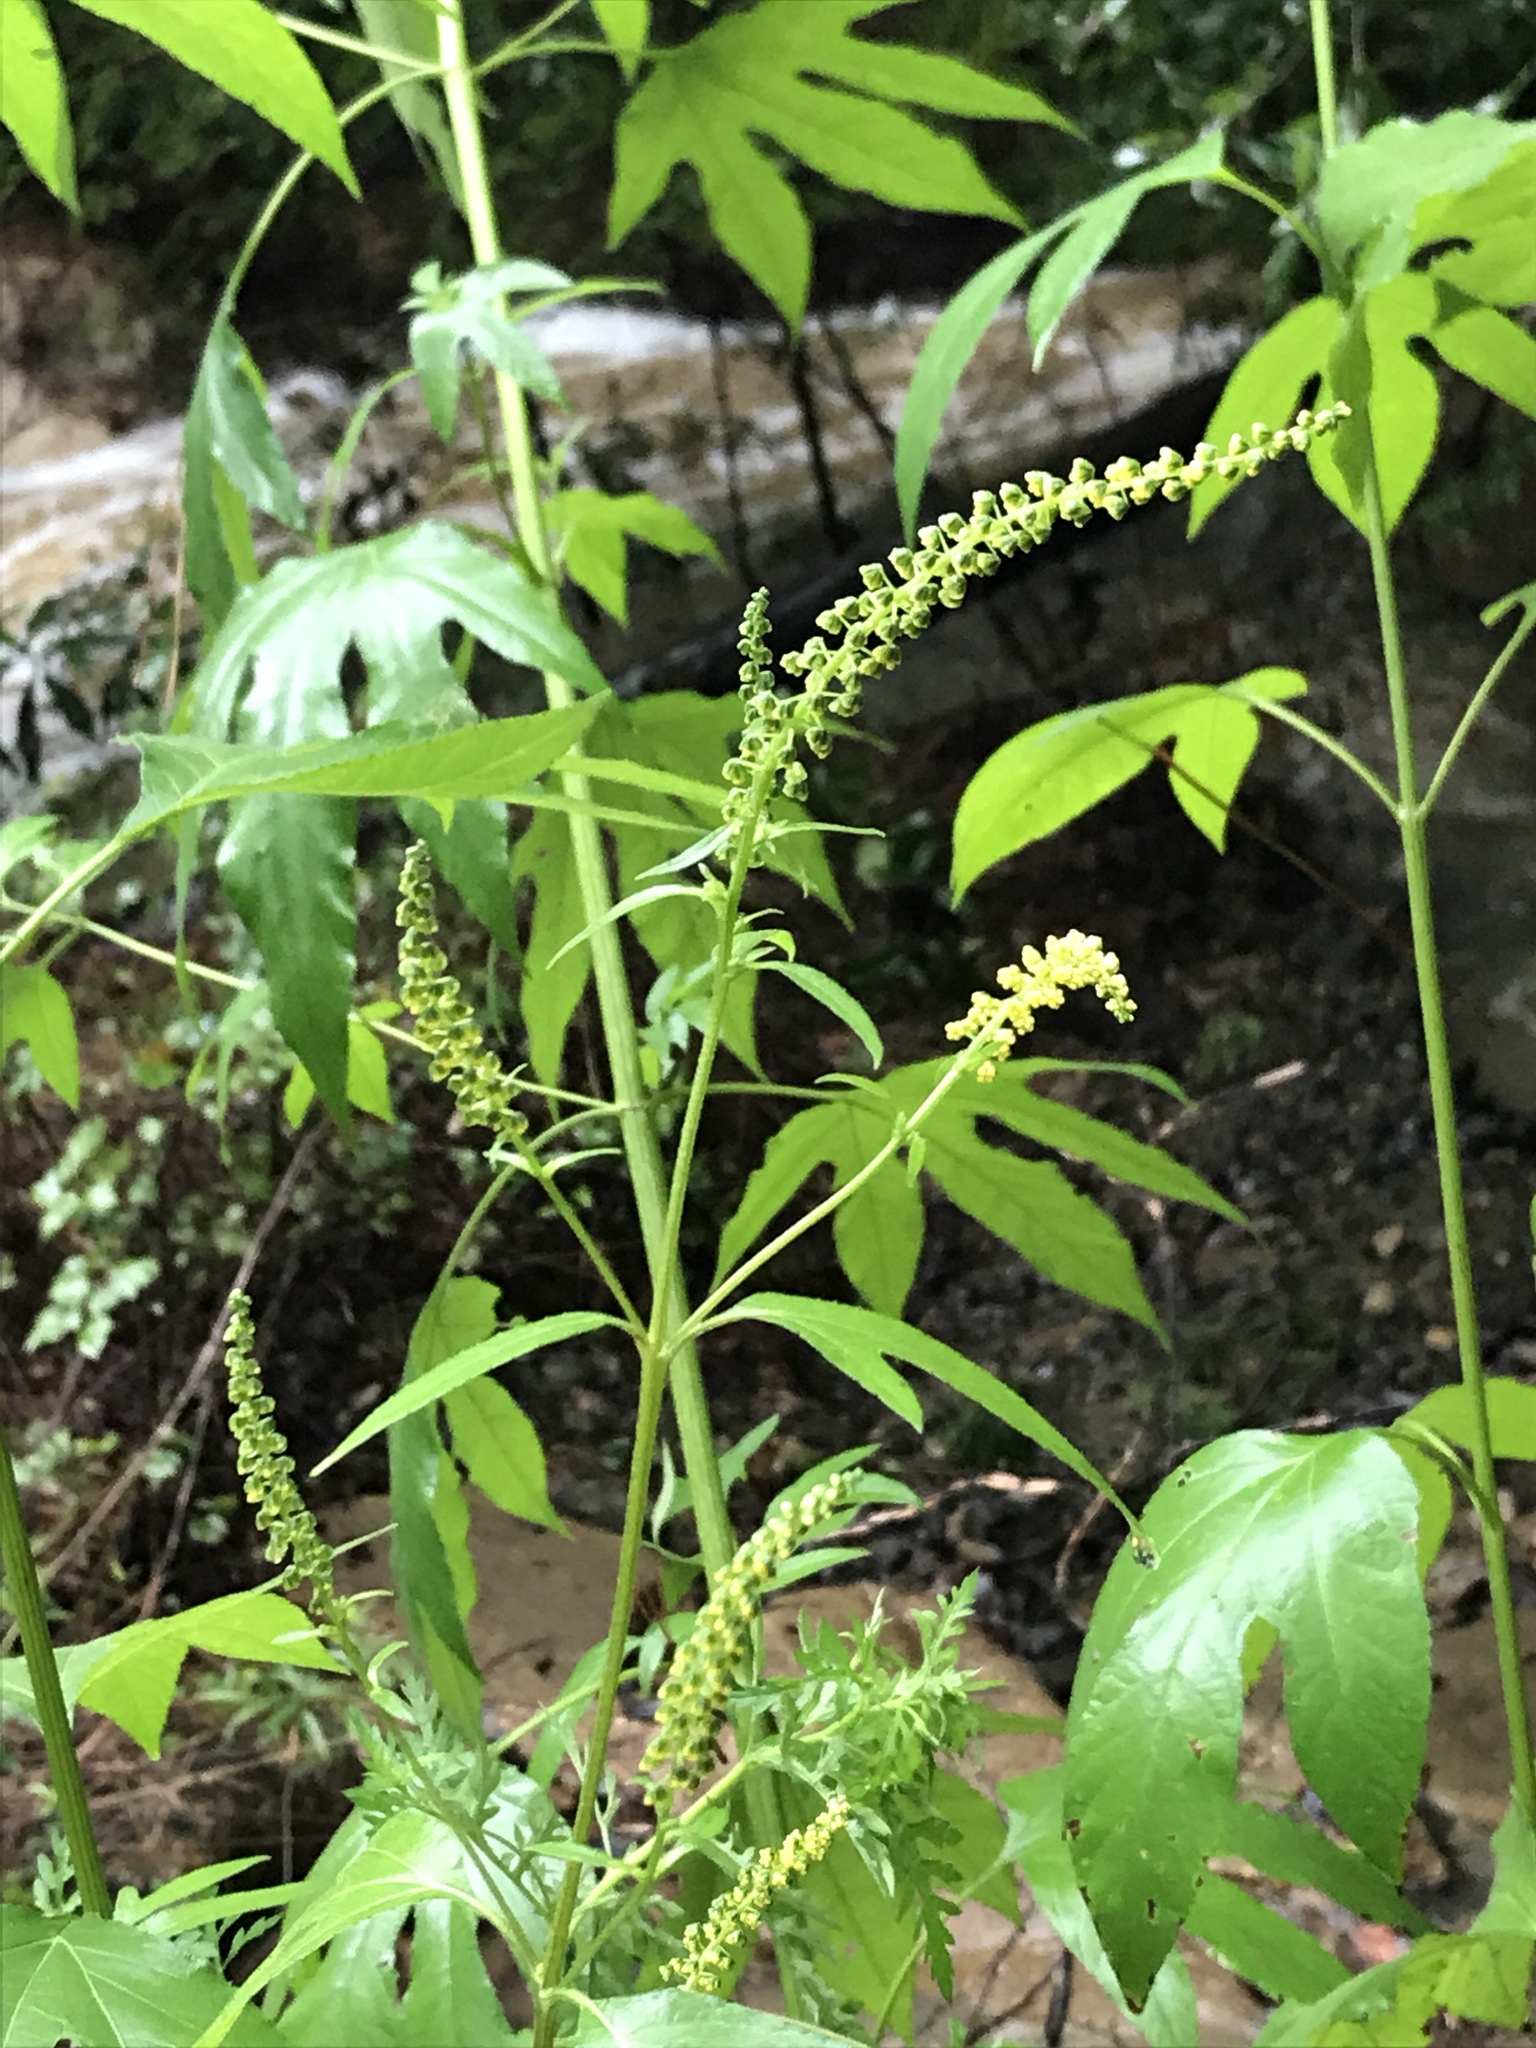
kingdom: Plantae
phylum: Tracheophyta
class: Magnoliopsida
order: Asterales
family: Asteraceae
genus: Ambrosia
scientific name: Ambrosia trifida
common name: Giant ragweed
